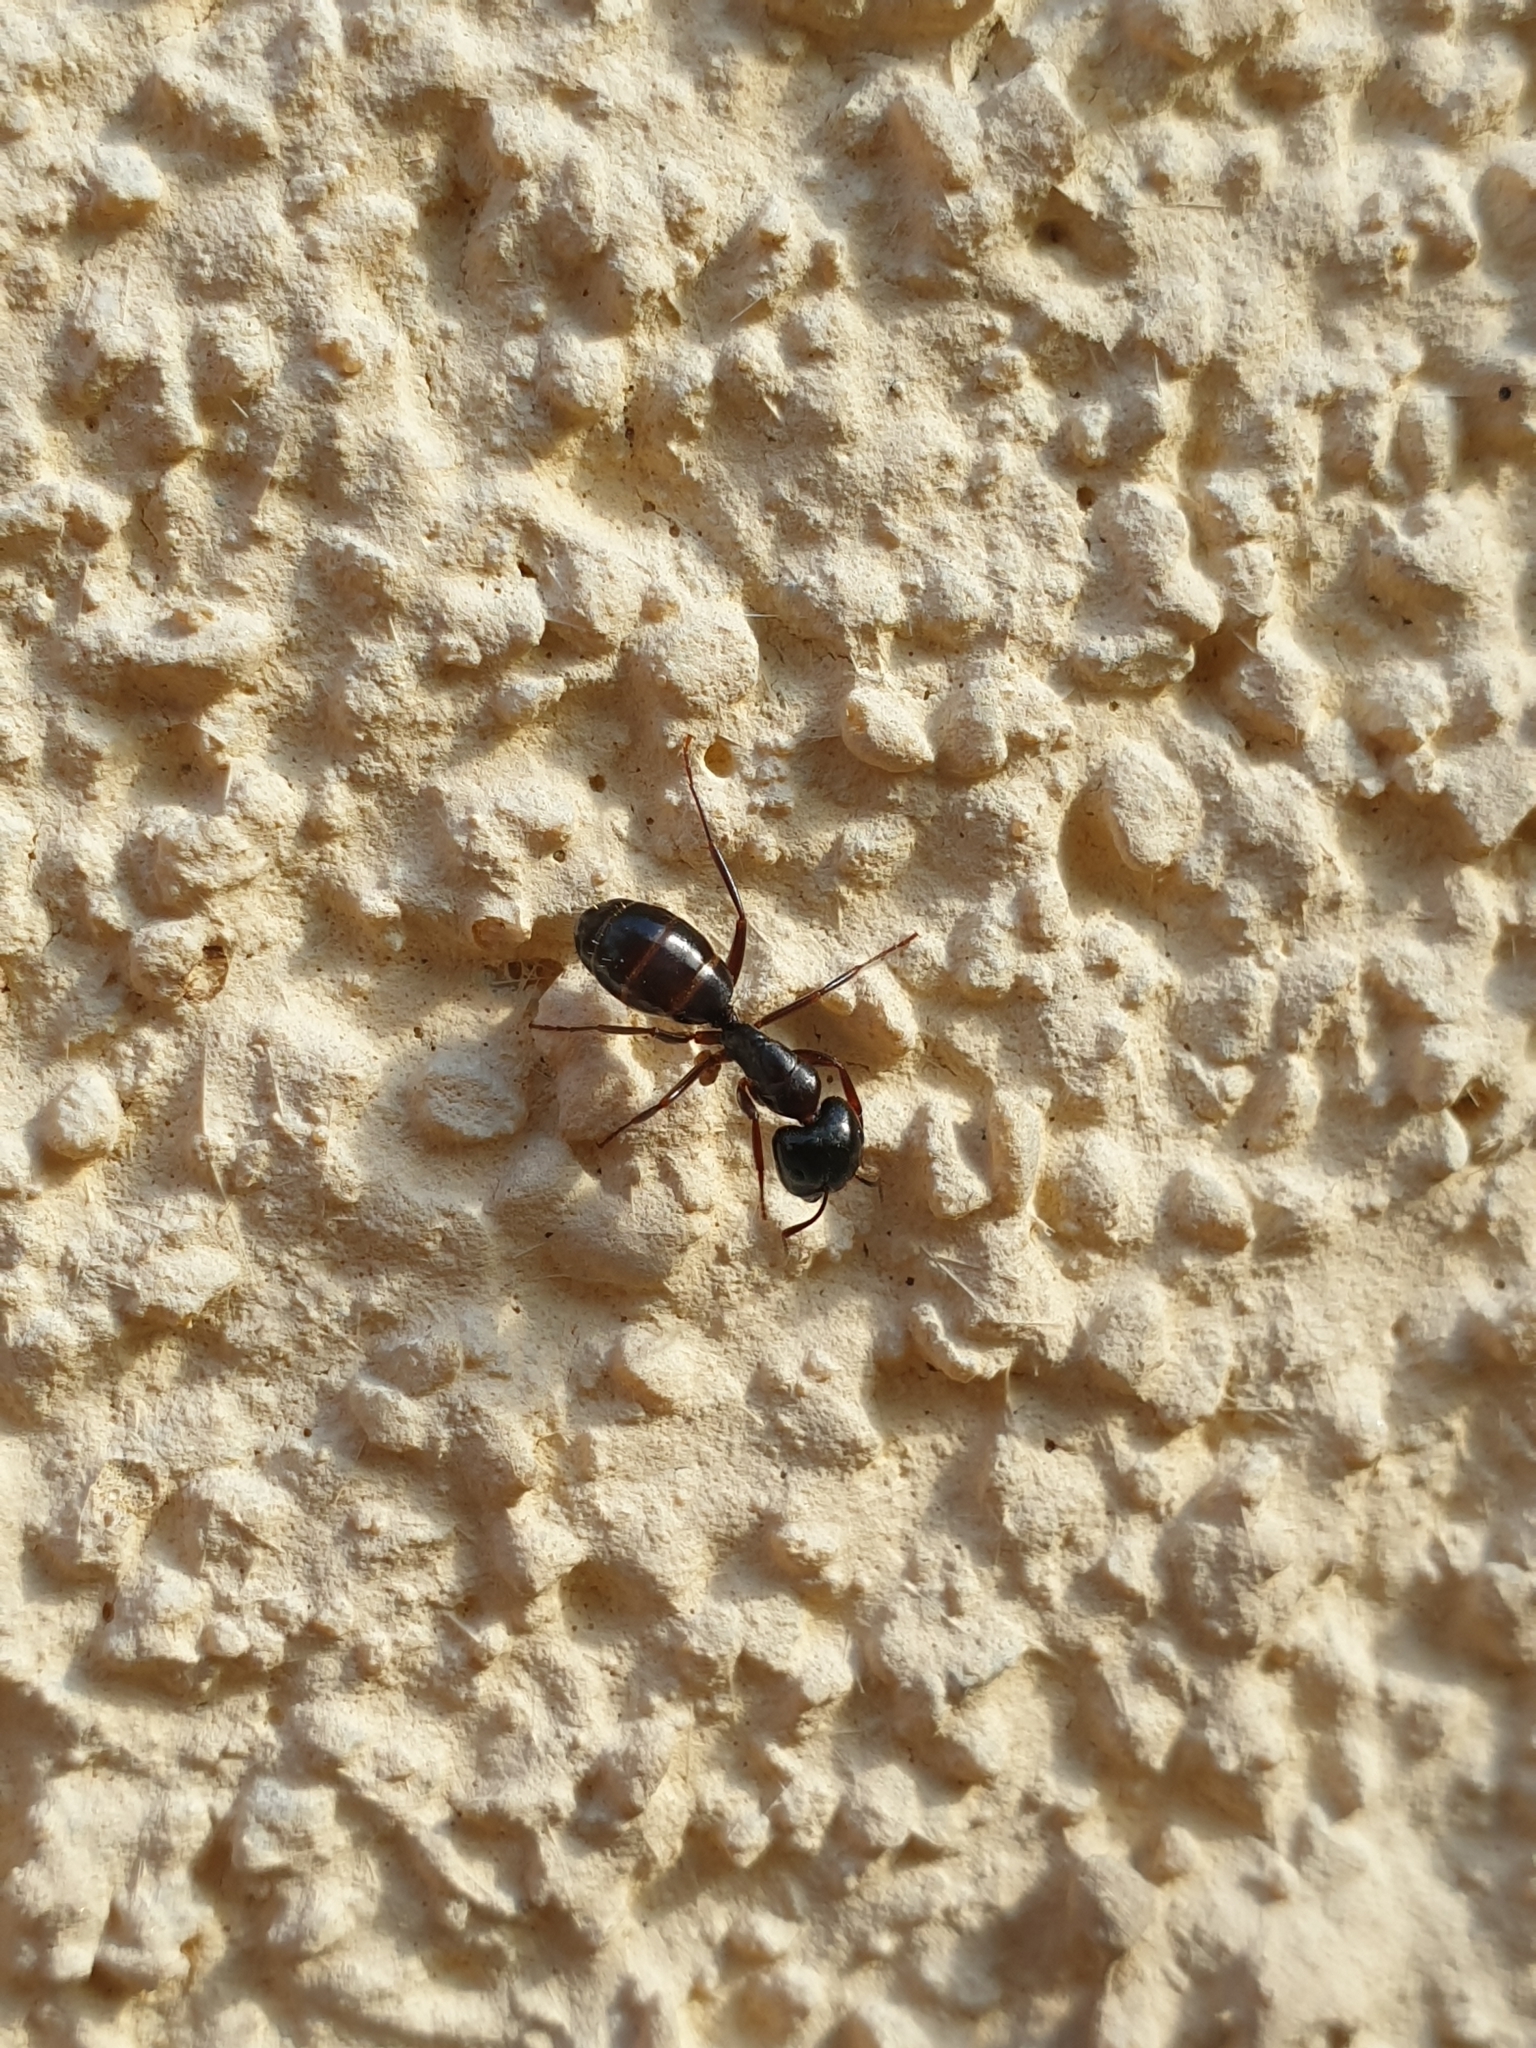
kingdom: Animalia
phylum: Arthropoda
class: Insecta
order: Hymenoptera
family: Formicidae
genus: Camponotus
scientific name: Camponotus fallax
